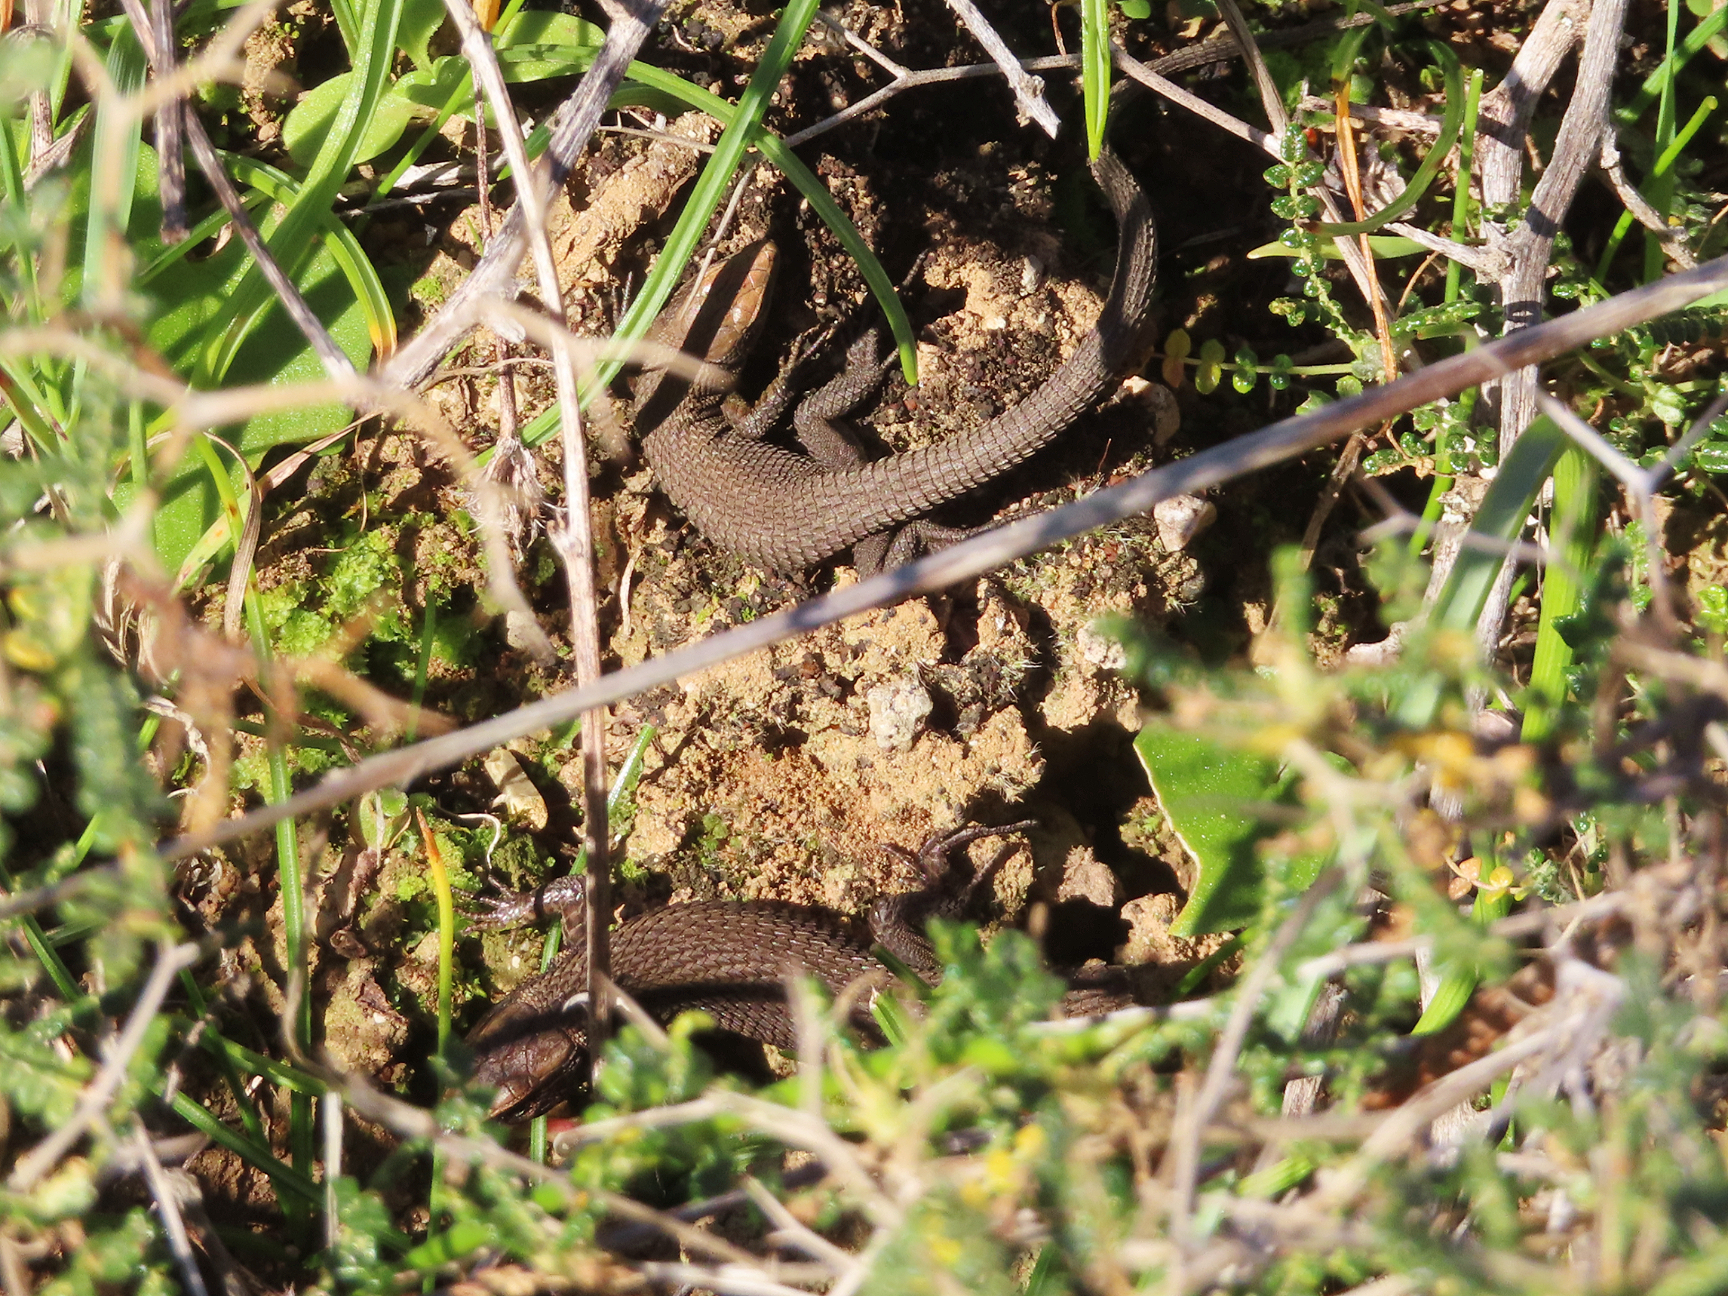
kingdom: Animalia
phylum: Chordata
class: Squamata
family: Lacertidae
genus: Algyroides
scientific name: Algyroides moreoticus
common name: Greek algyroides
